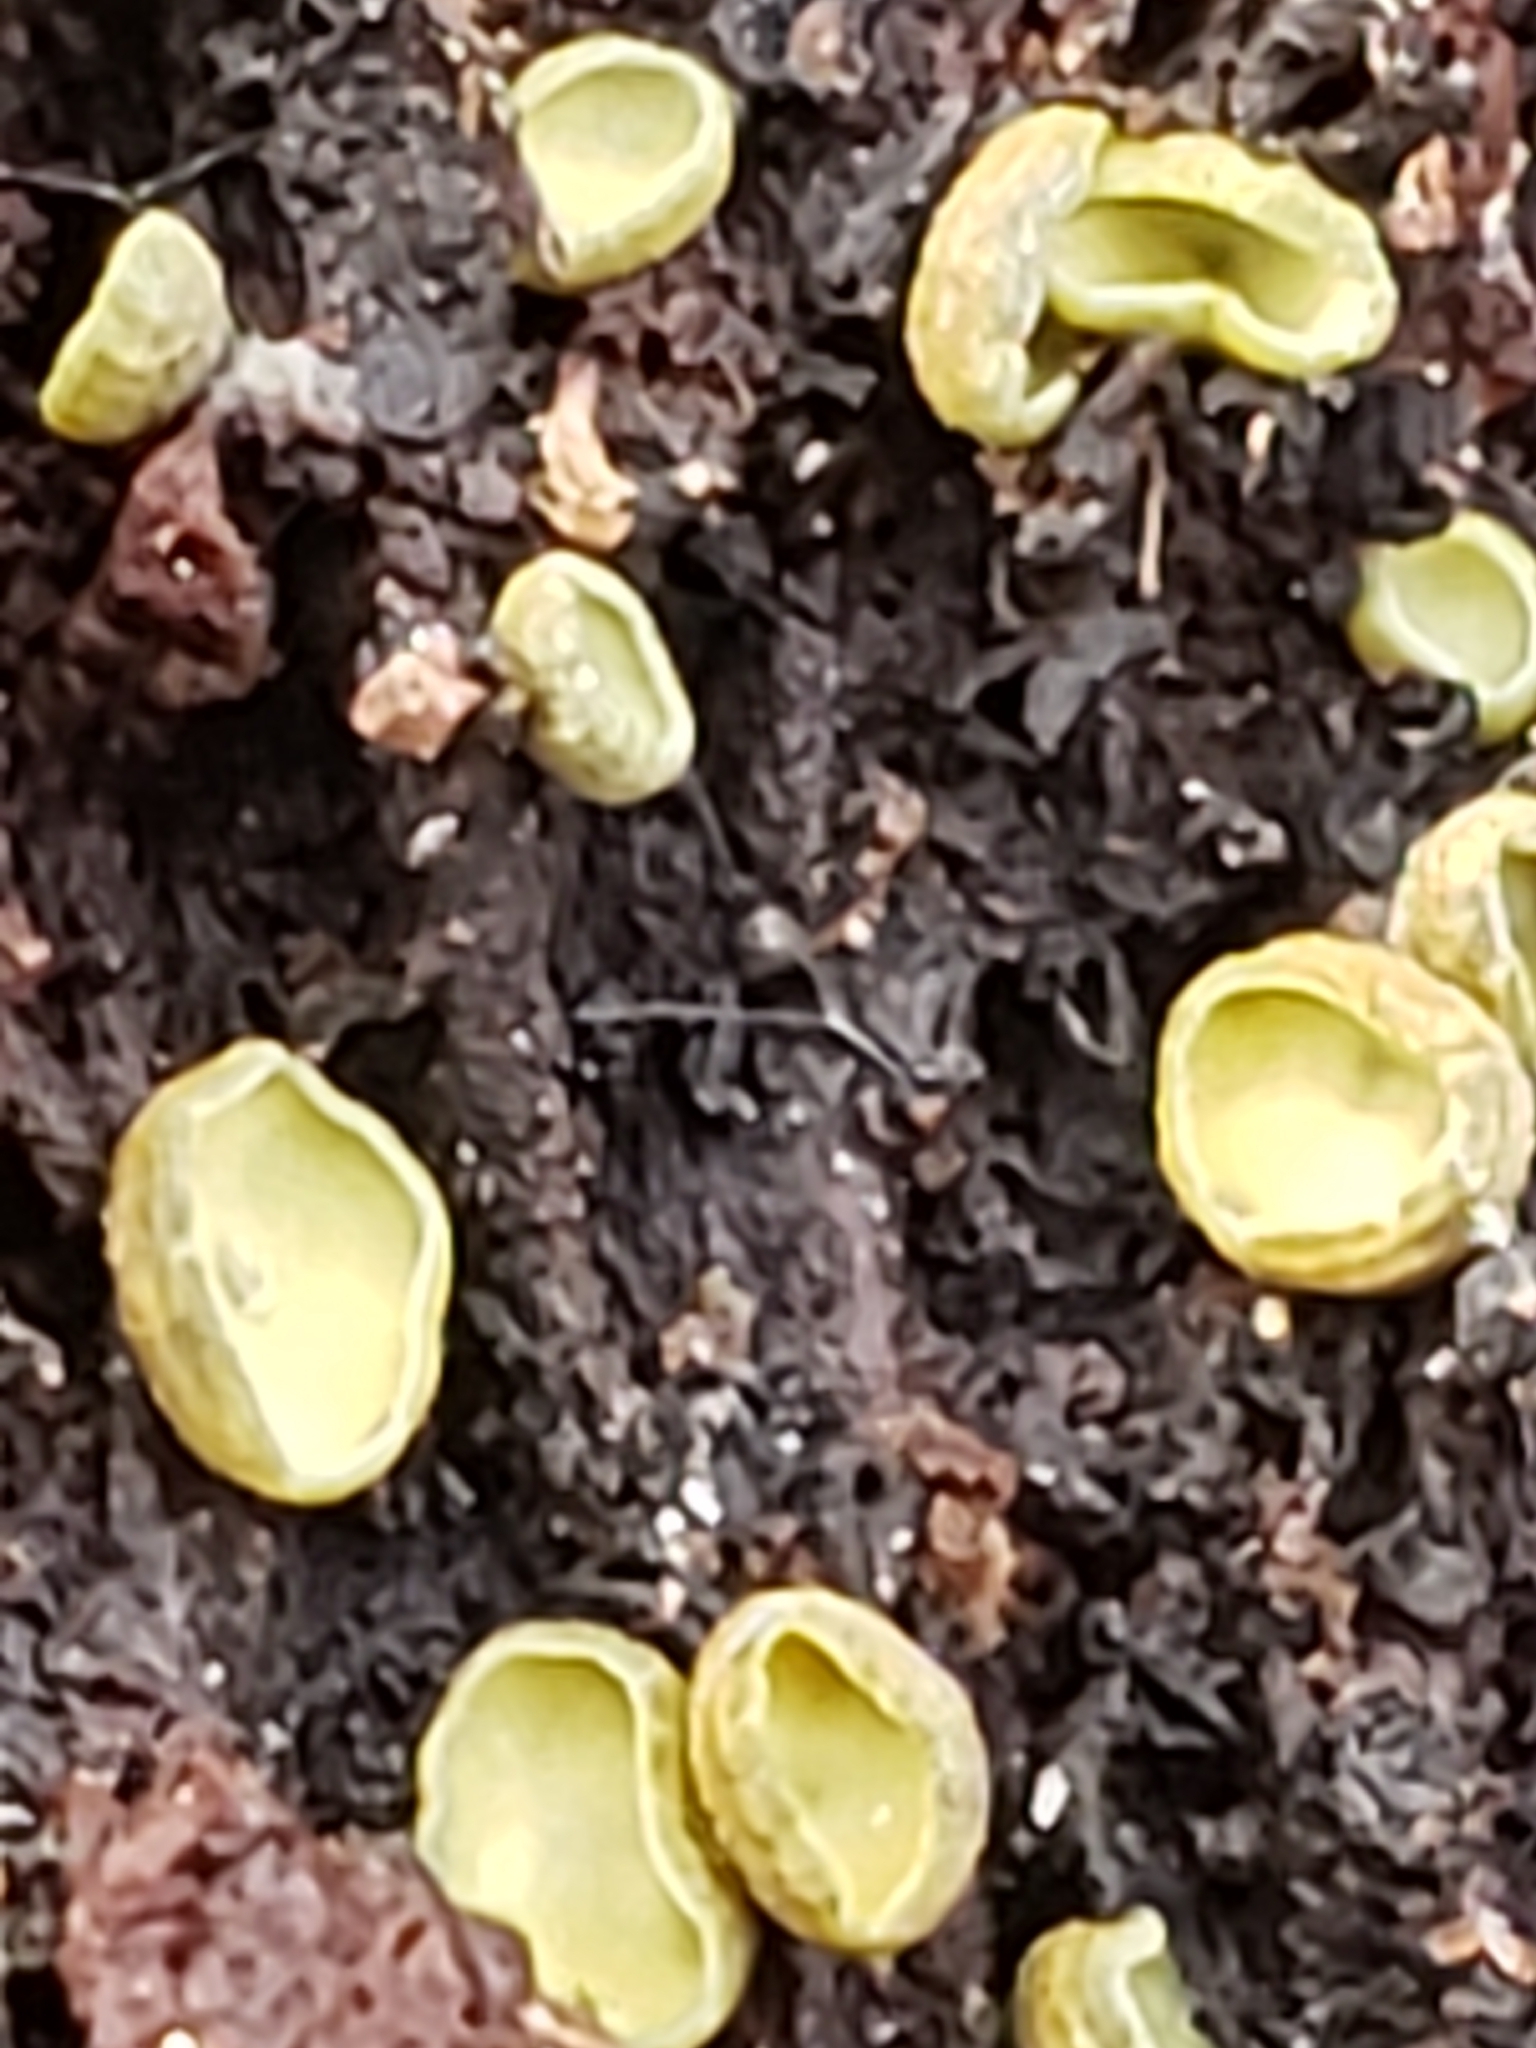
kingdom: Fungi
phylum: Ascomycota
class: Leotiomycetes
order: Helotiales
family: Chlorospleniaceae
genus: Chlorosplenium
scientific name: Chlorosplenium chlora
